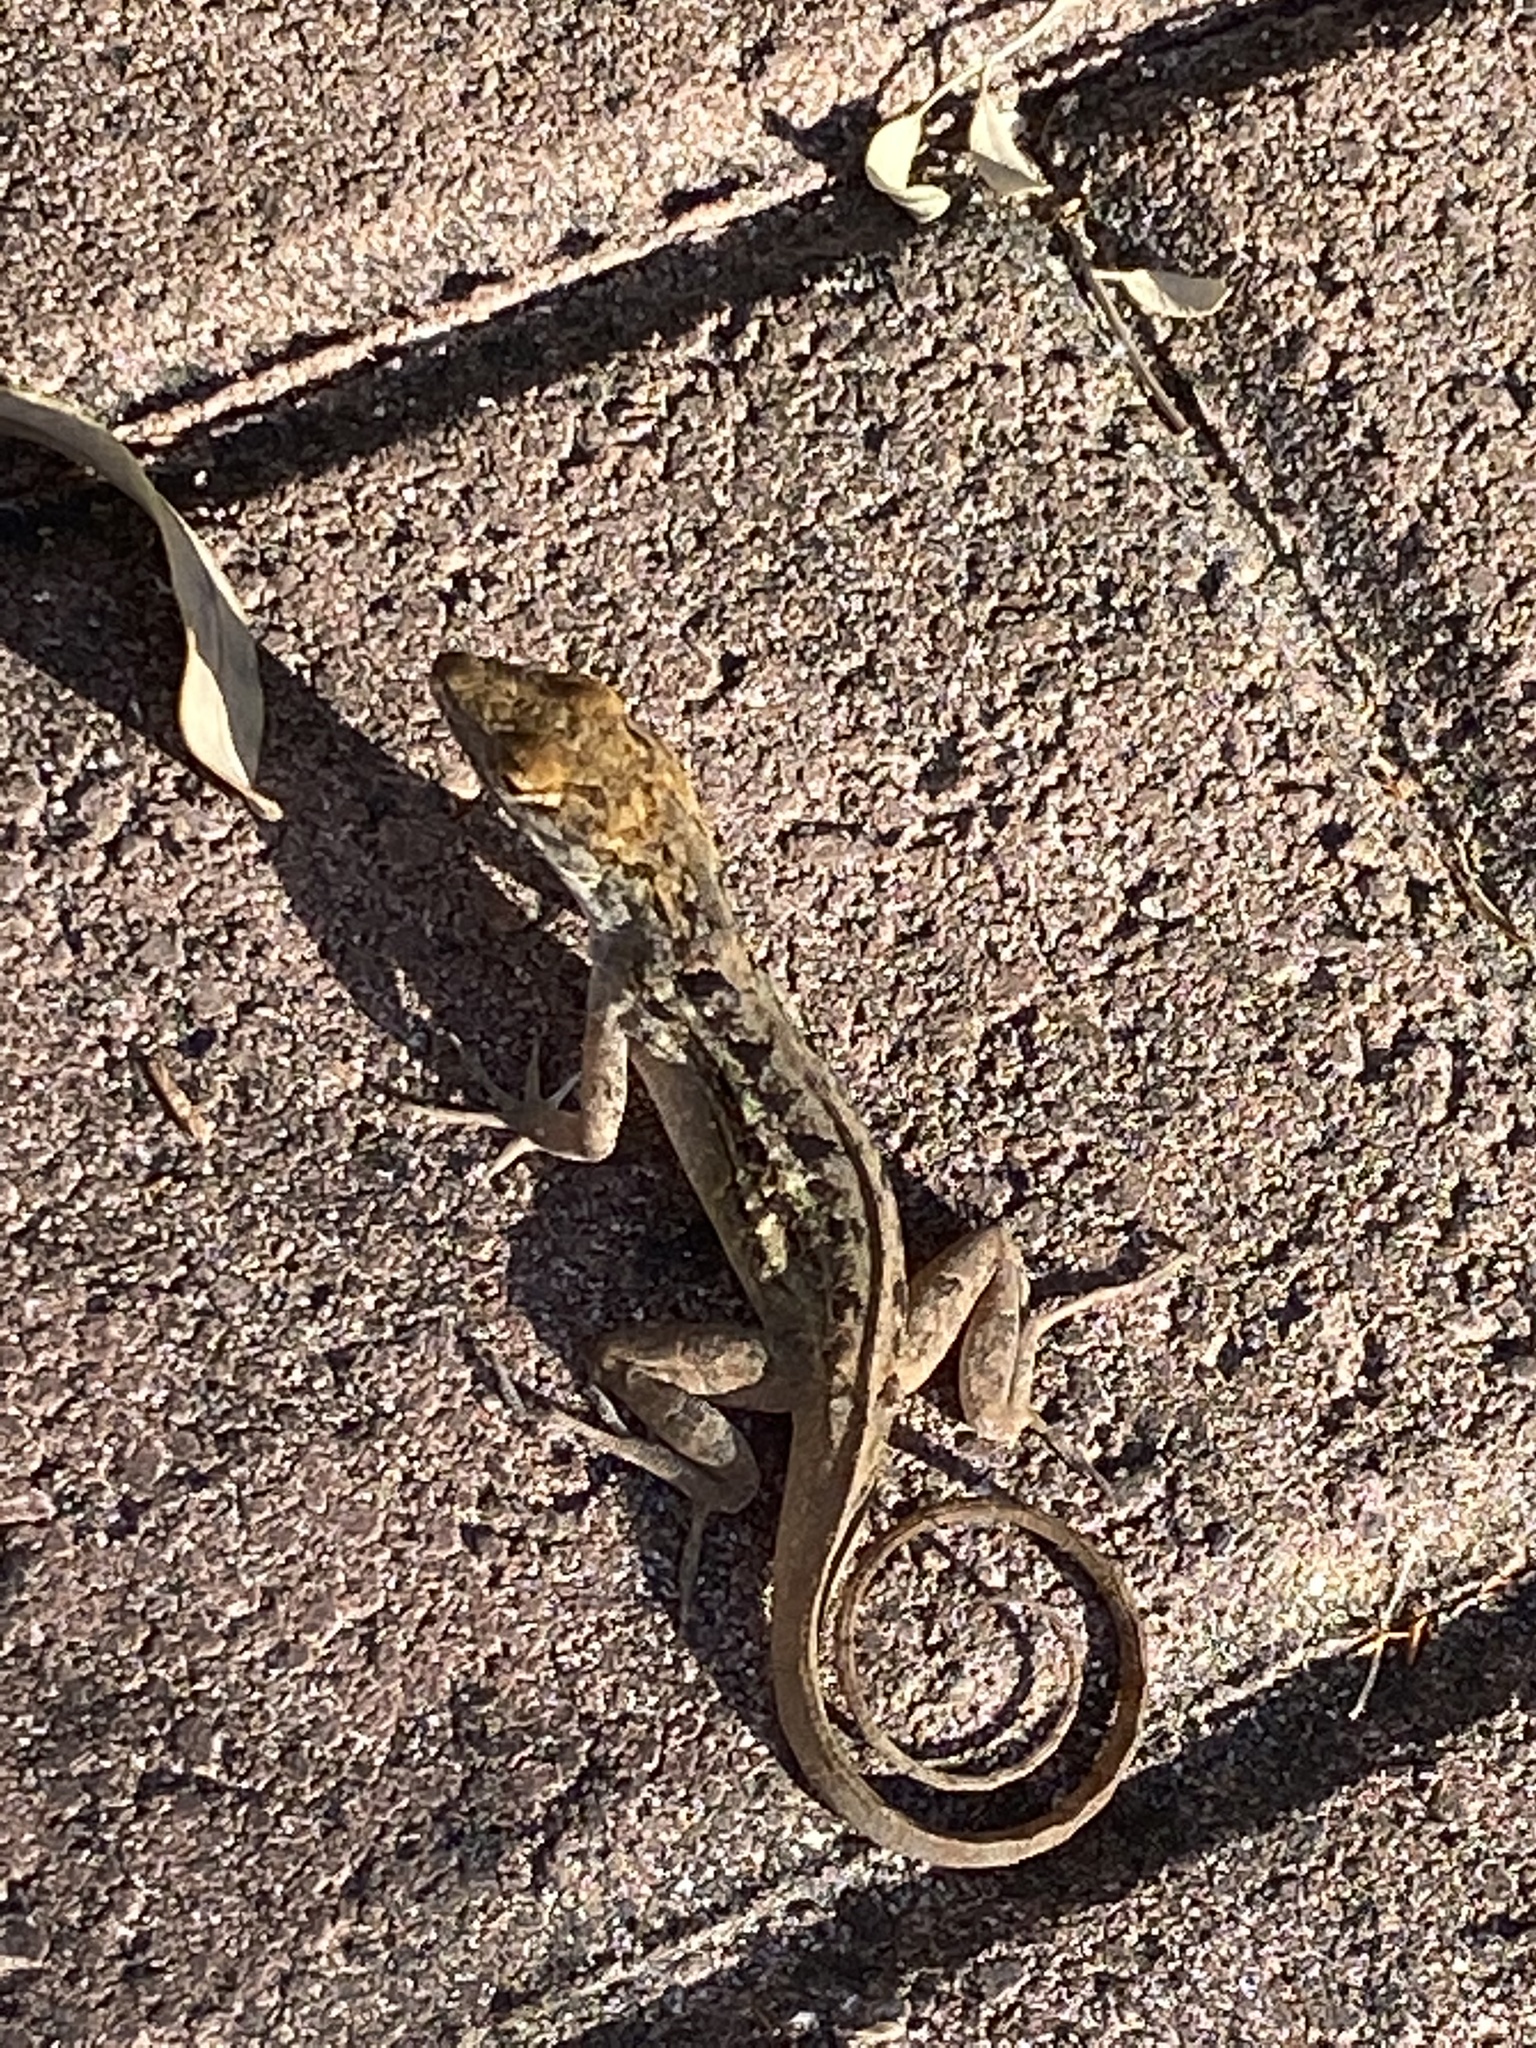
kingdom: Animalia
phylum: Chordata
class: Squamata
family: Dactyloidae
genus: Anolis
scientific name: Anolis sagrei
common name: Brown anole
